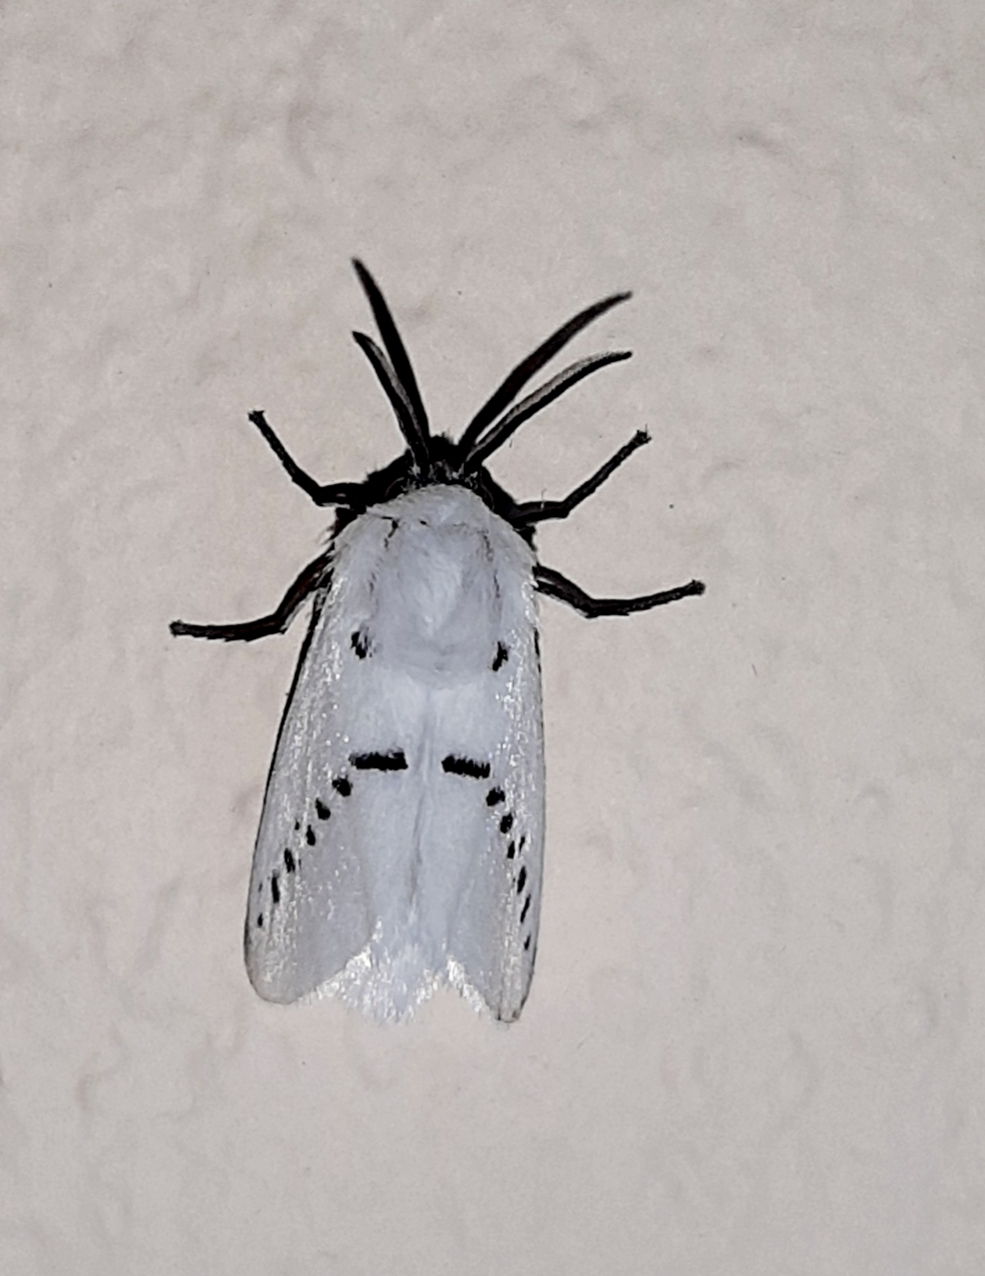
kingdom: Animalia
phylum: Arthropoda
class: Insecta
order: Lepidoptera
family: Megalopygidae
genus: Mesoscia
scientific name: Mesoscia unifasciata
